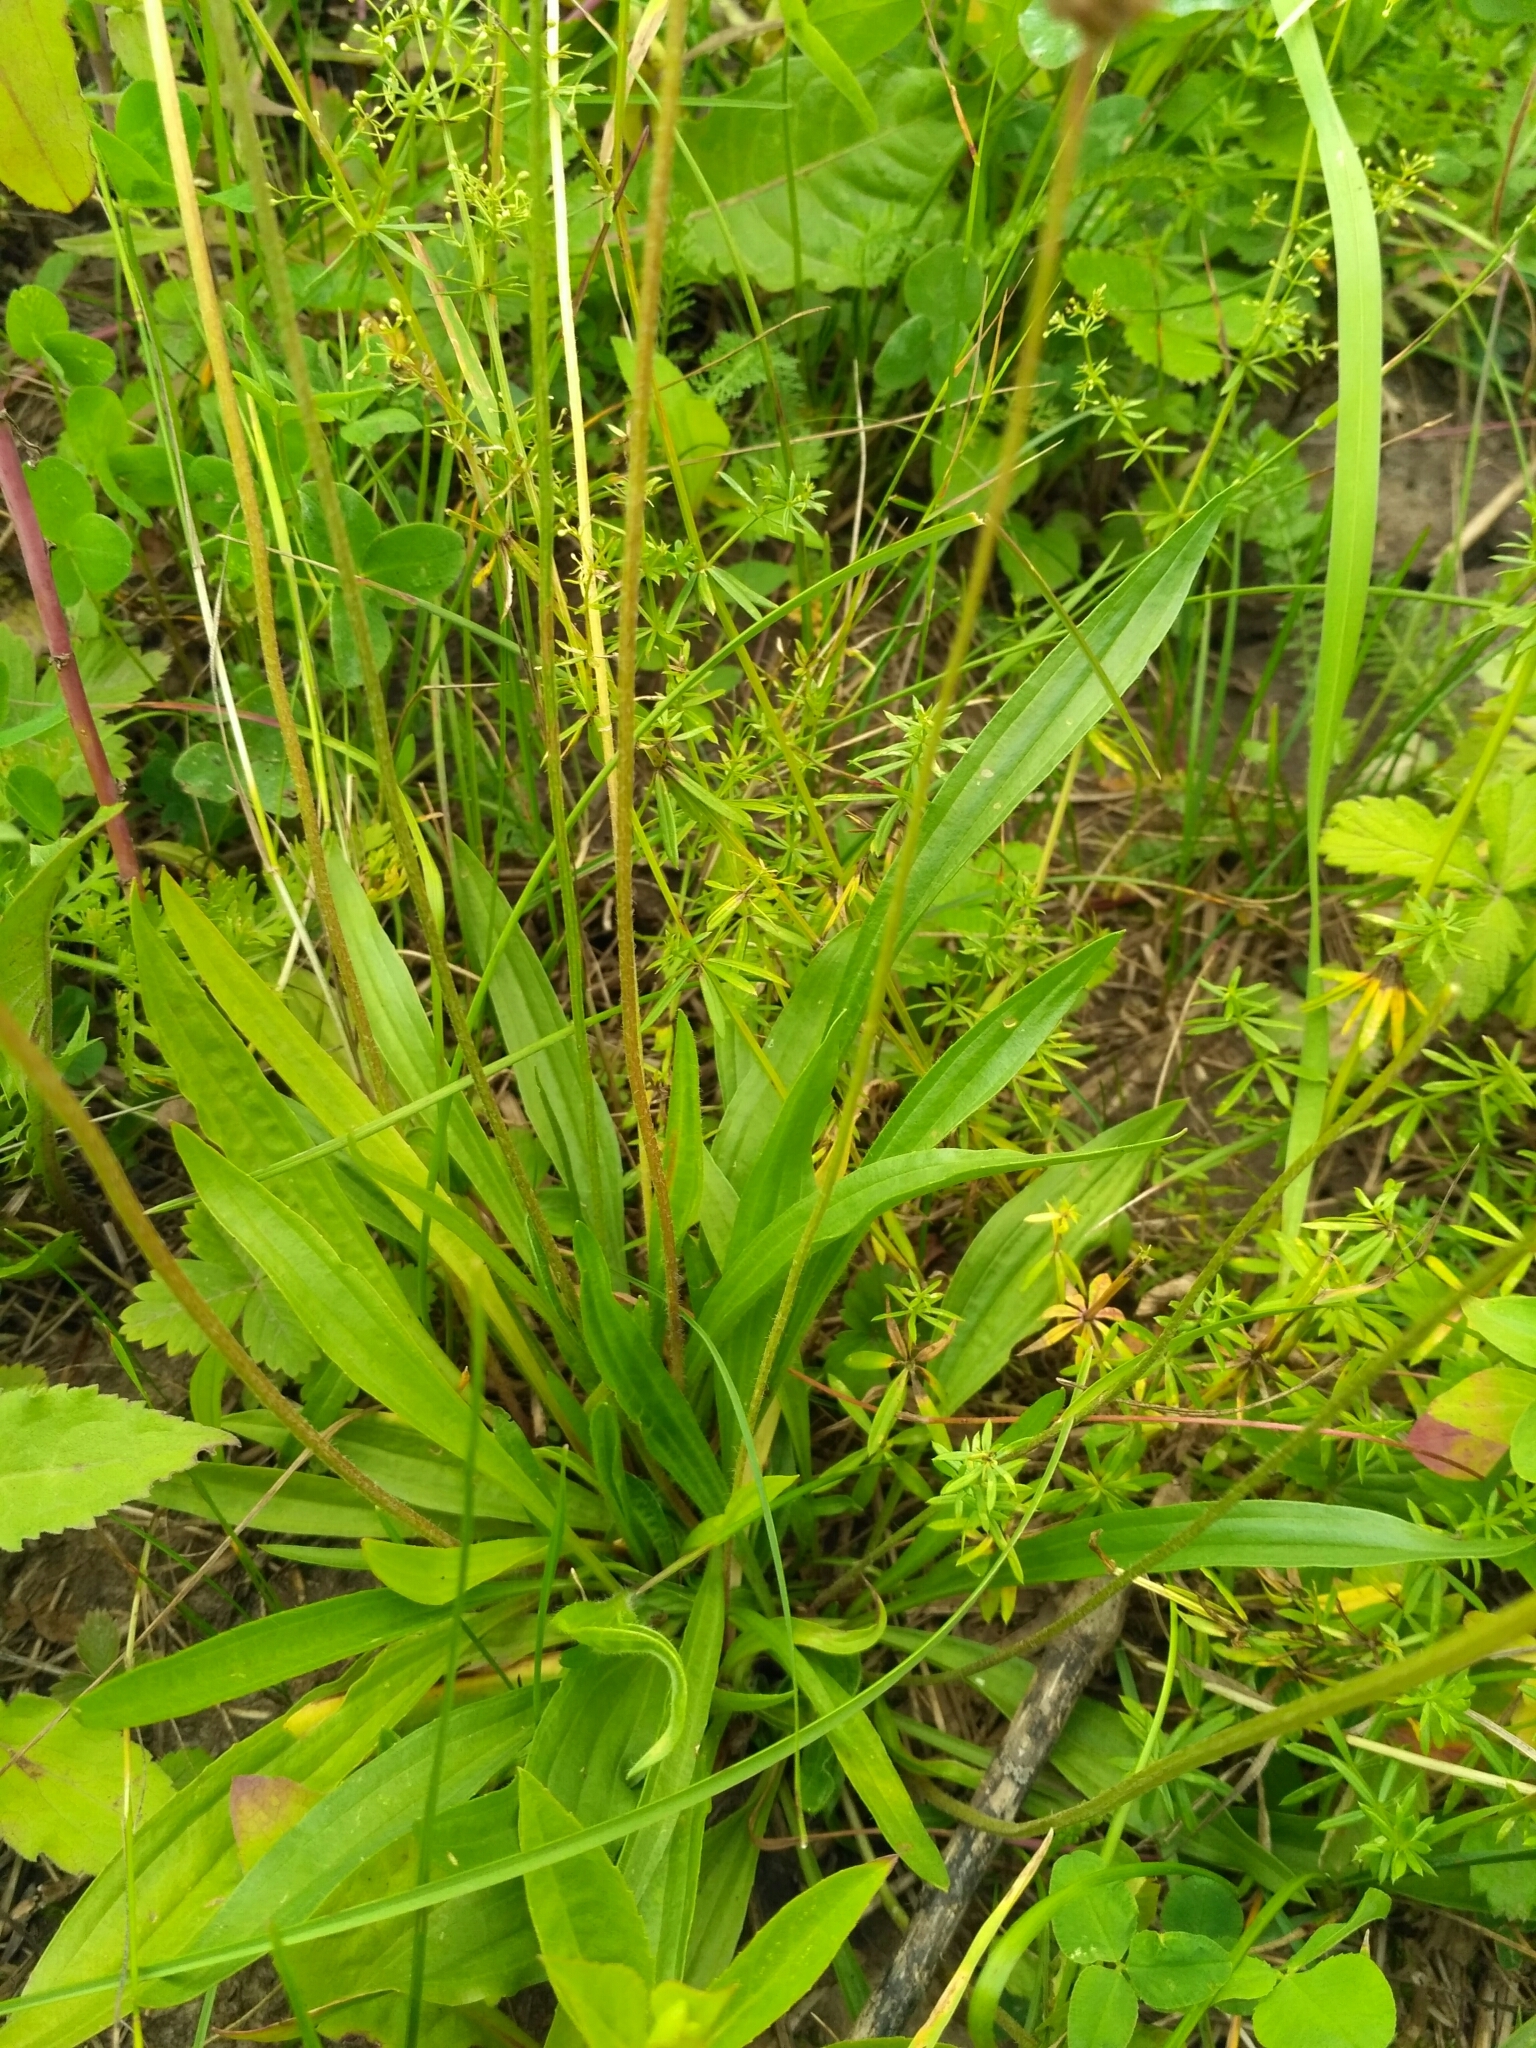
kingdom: Plantae
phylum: Tracheophyta
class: Magnoliopsida
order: Lamiales
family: Plantaginaceae
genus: Plantago
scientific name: Plantago lanceolata
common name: Ribwort plantain
